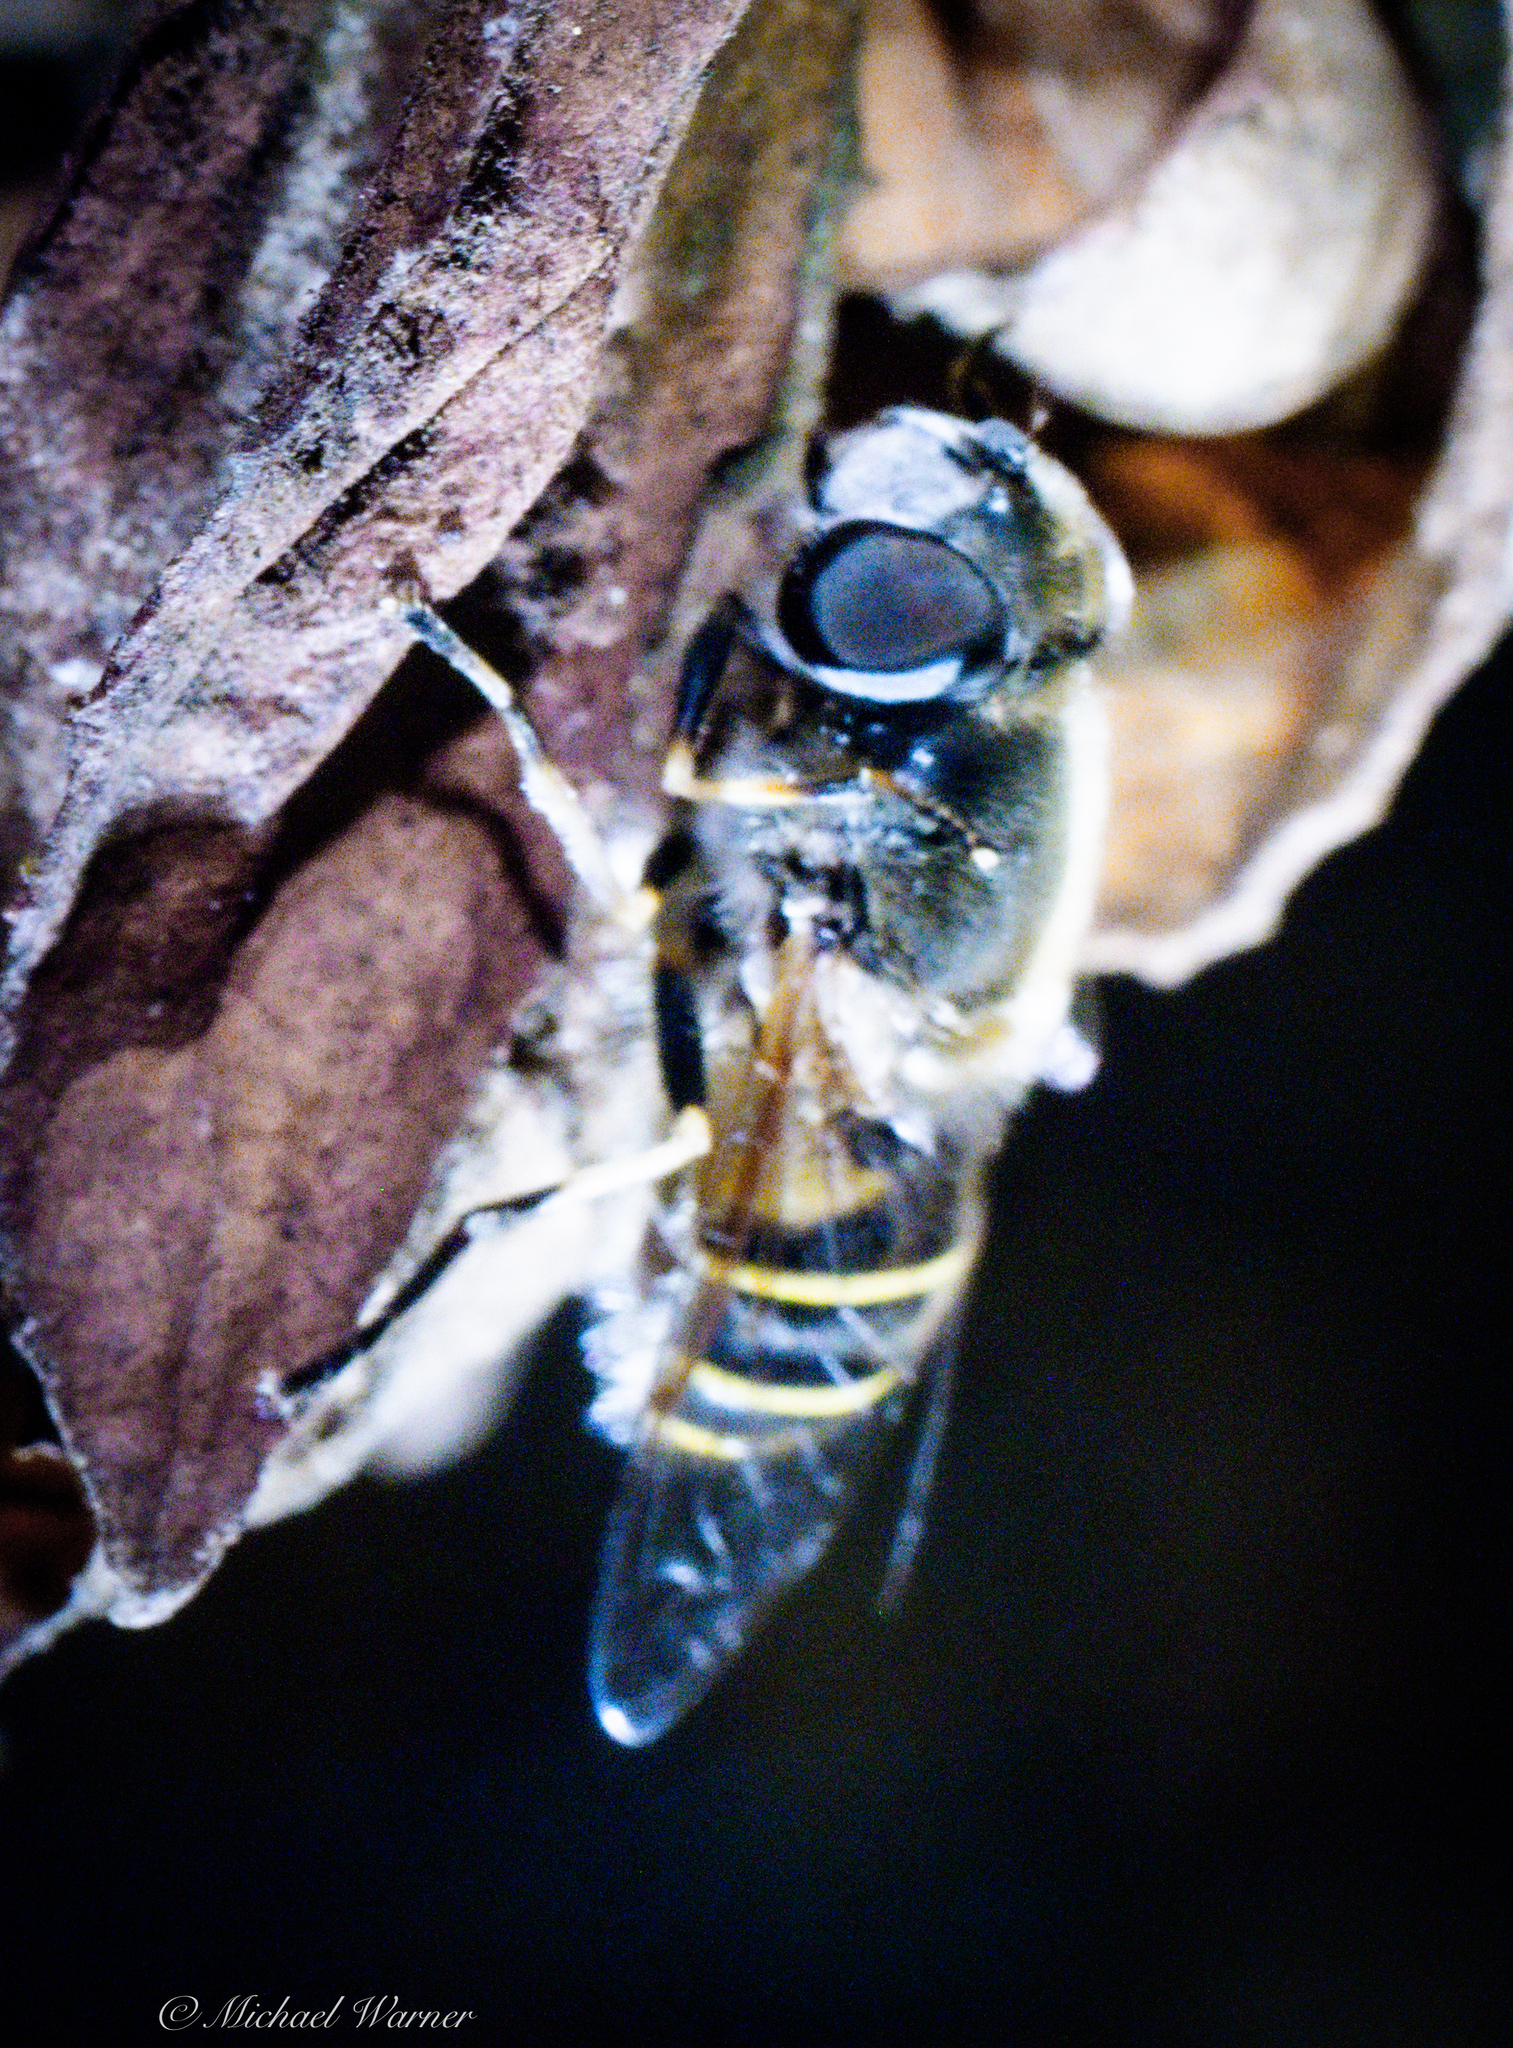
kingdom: Animalia
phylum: Arthropoda
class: Insecta
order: Diptera
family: Syrphidae
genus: Eristalis
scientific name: Eristalis hirta
